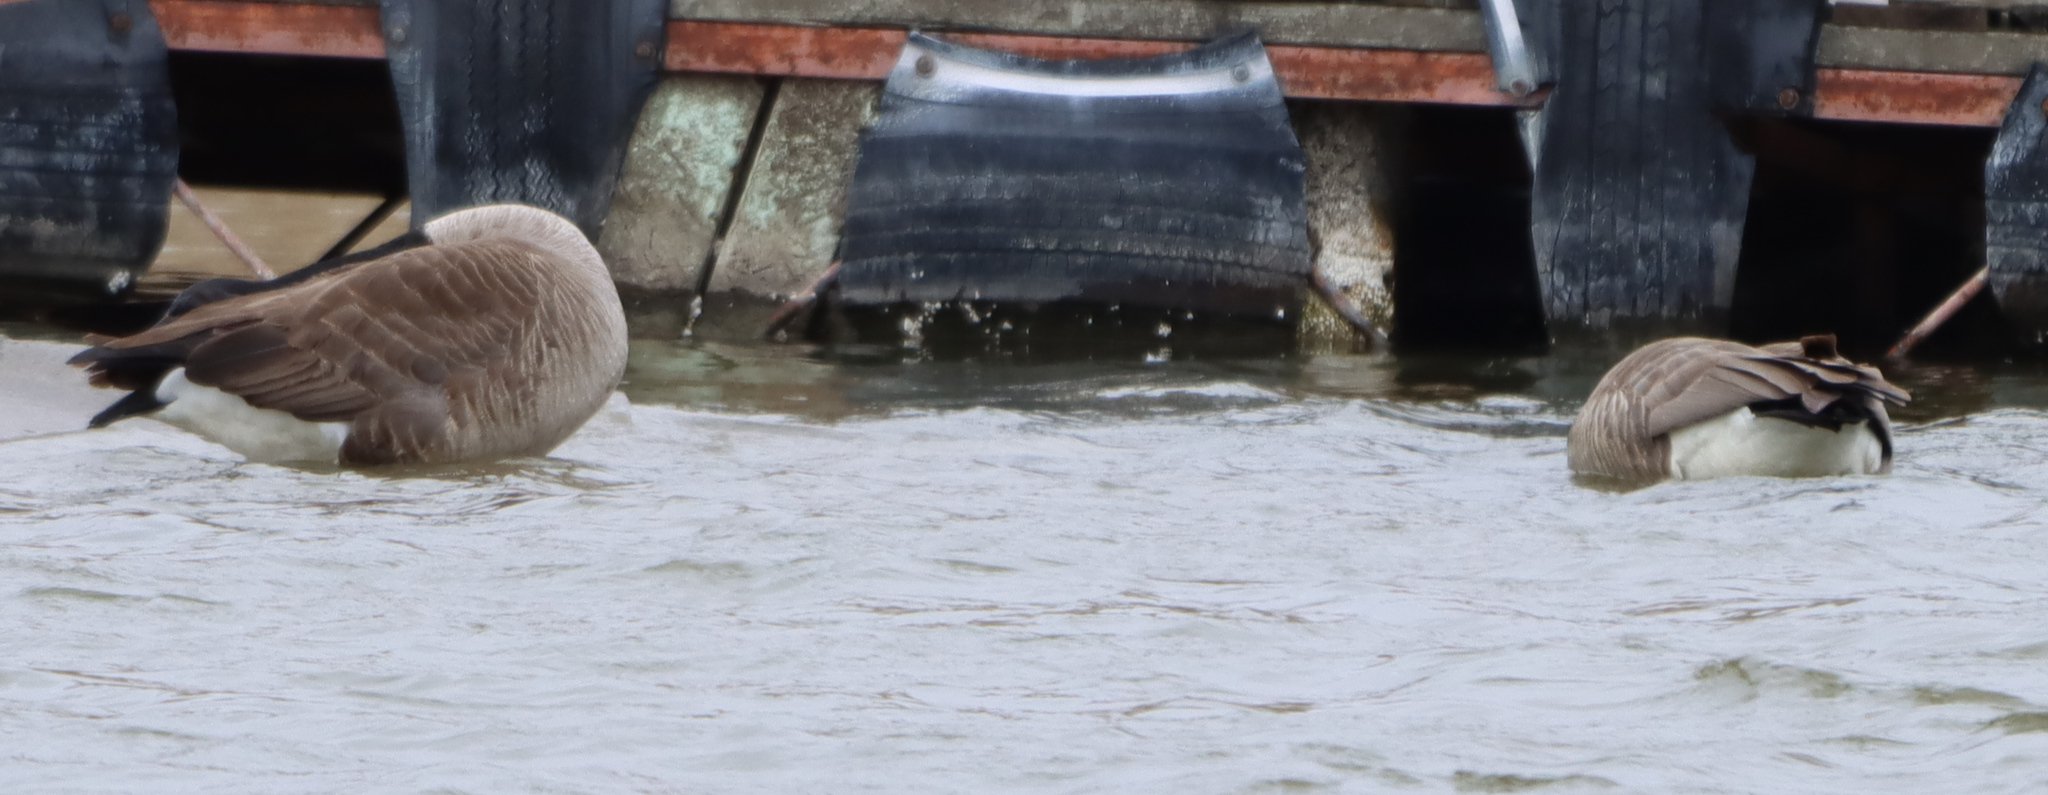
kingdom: Animalia
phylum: Chordata
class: Aves
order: Anseriformes
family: Anatidae
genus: Branta
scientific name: Branta canadensis
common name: Canada goose
